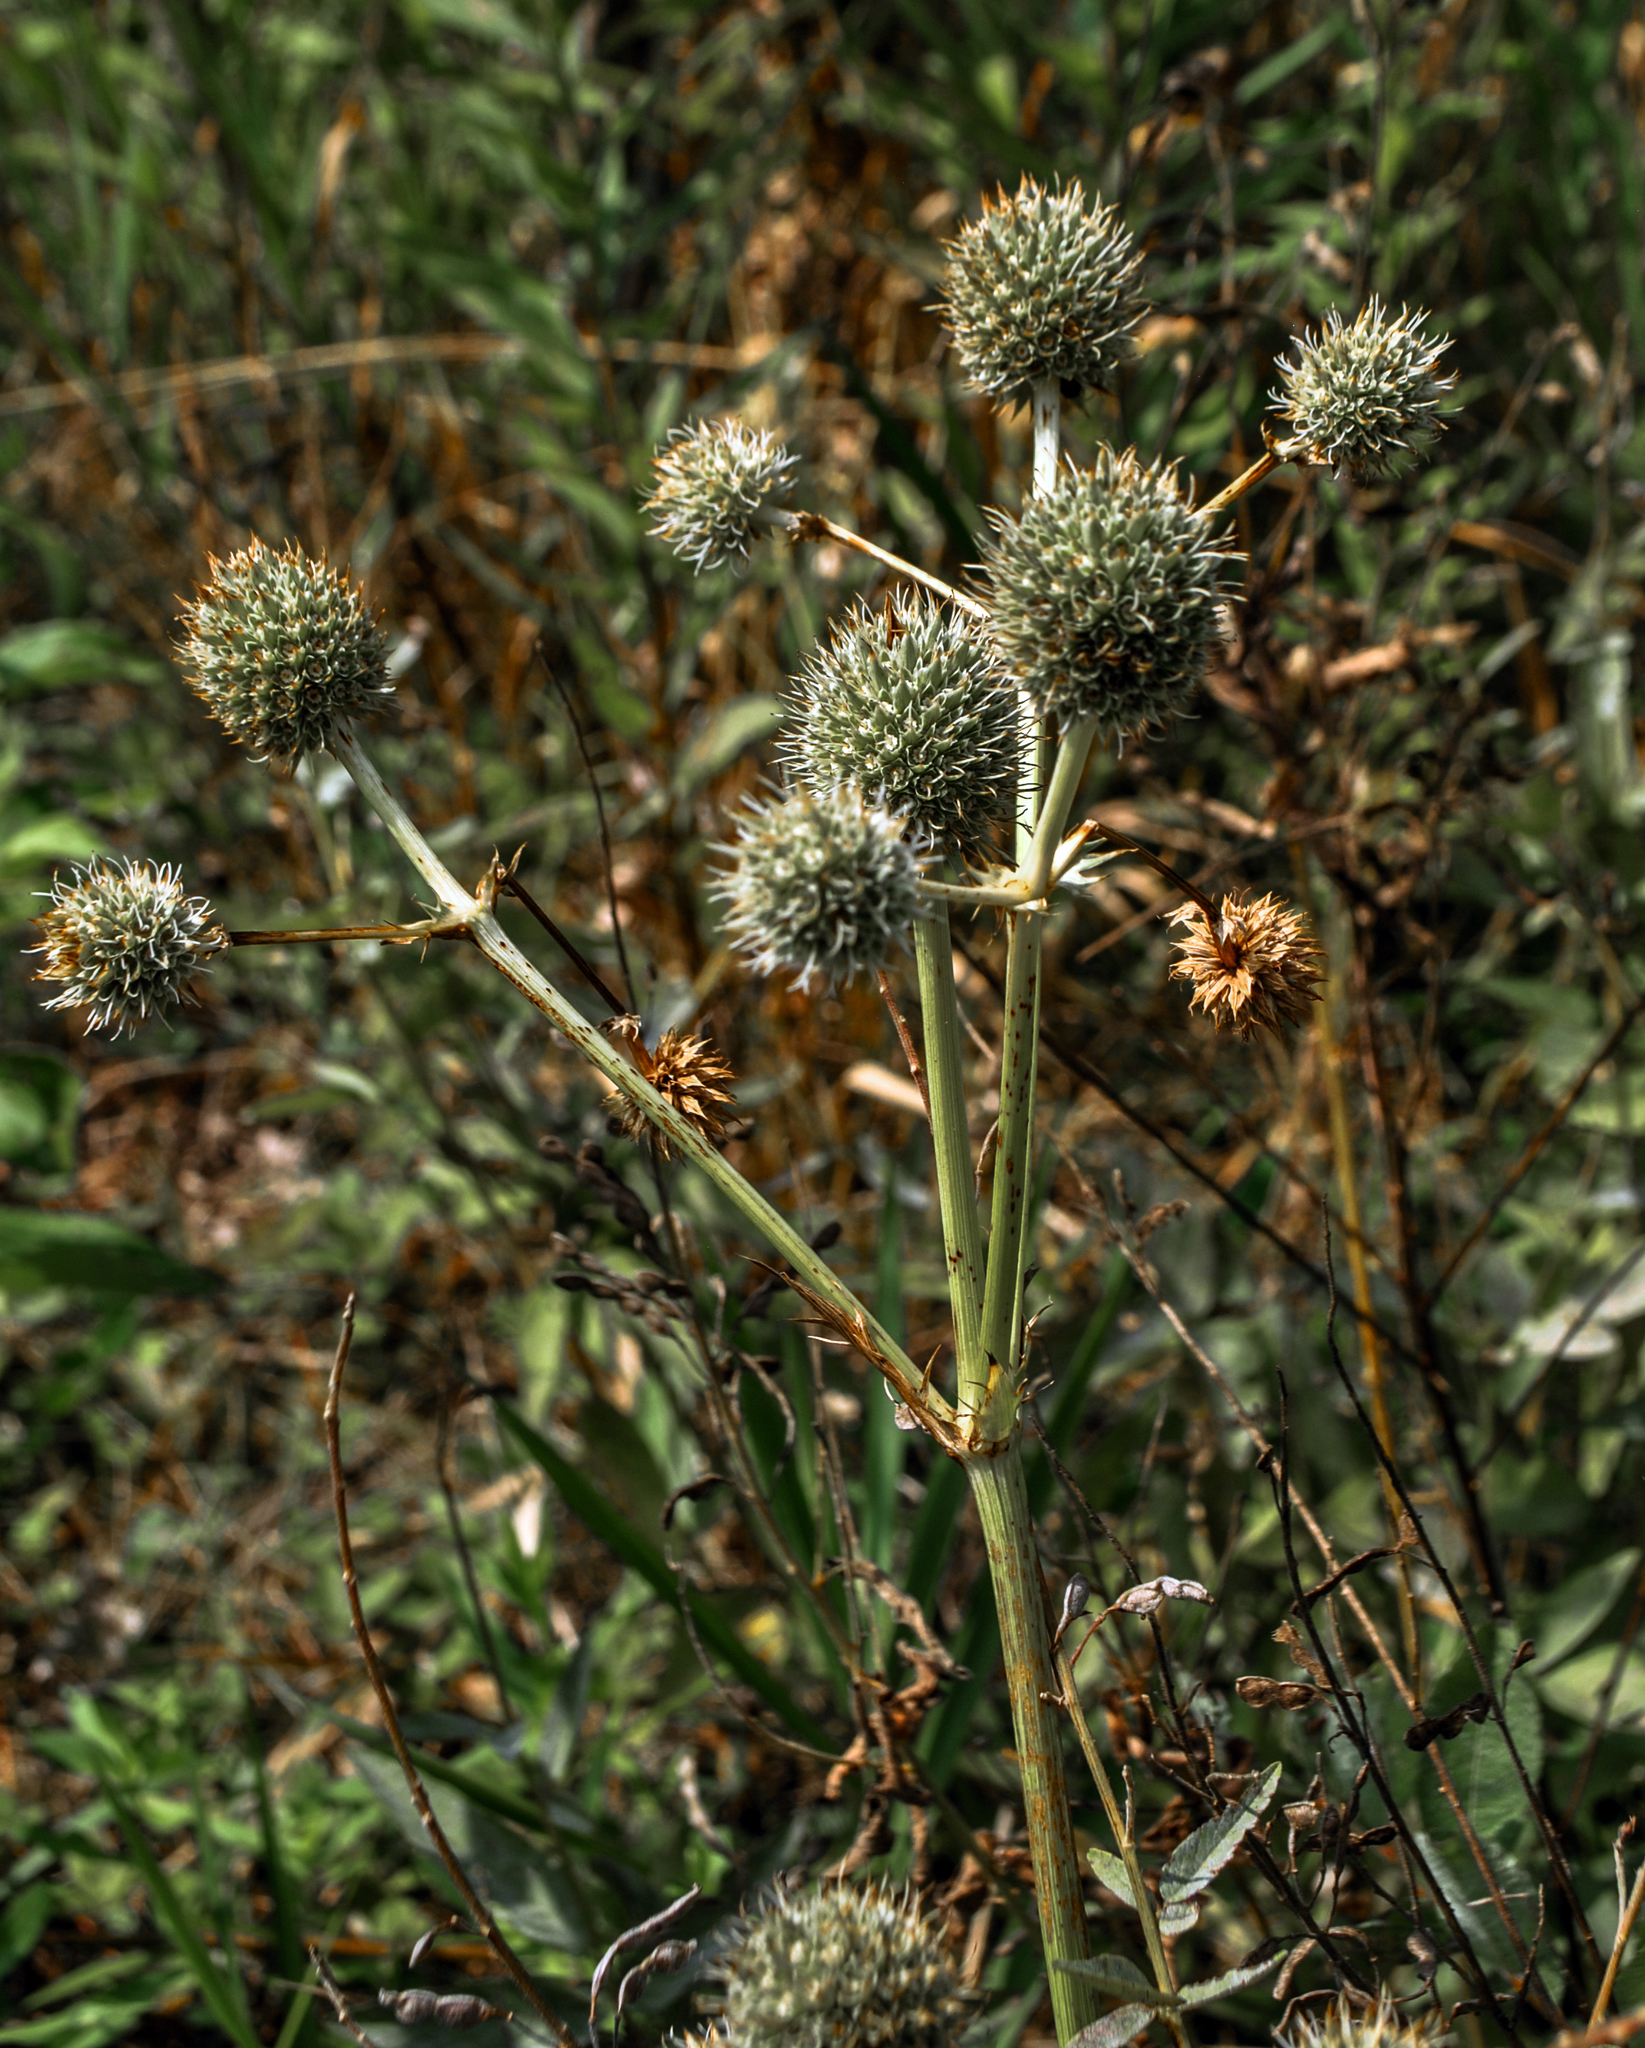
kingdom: Plantae
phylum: Tracheophyta
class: Magnoliopsida
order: Apiales
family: Apiaceae
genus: Eryngium
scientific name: Eryngium yuccifolium
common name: Button eryngo
